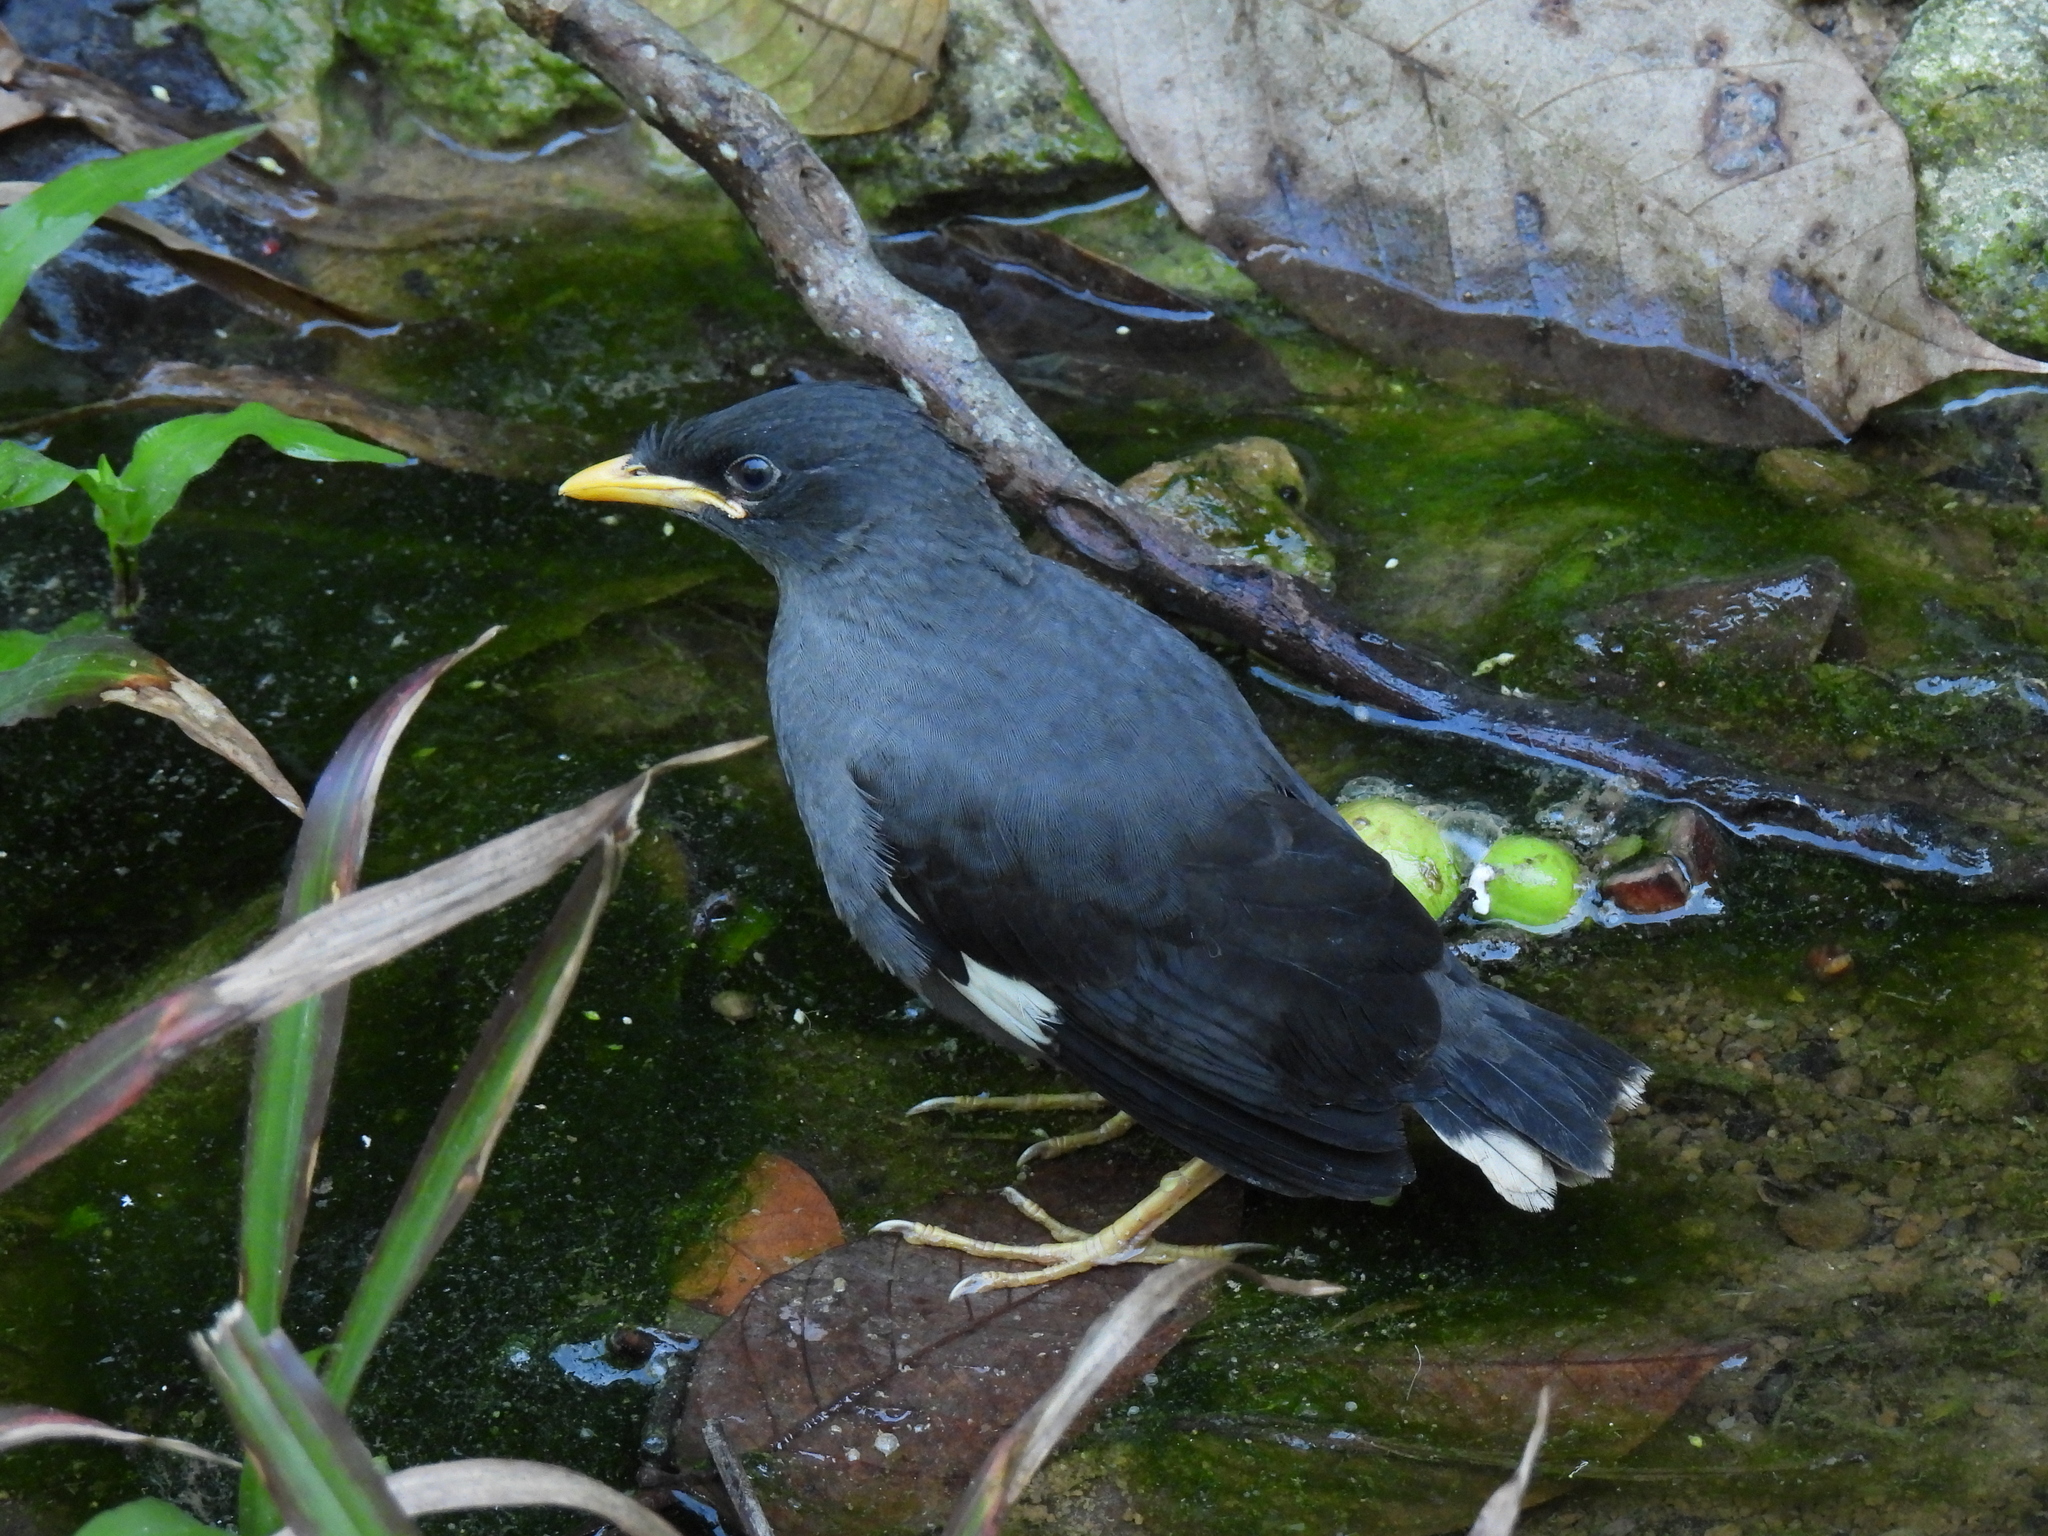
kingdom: Animalia
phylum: Chordata
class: Aves
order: Passeriformes
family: Sturnidae
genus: Acridotheres
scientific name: Acridotheres javanicus
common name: Javan myna
